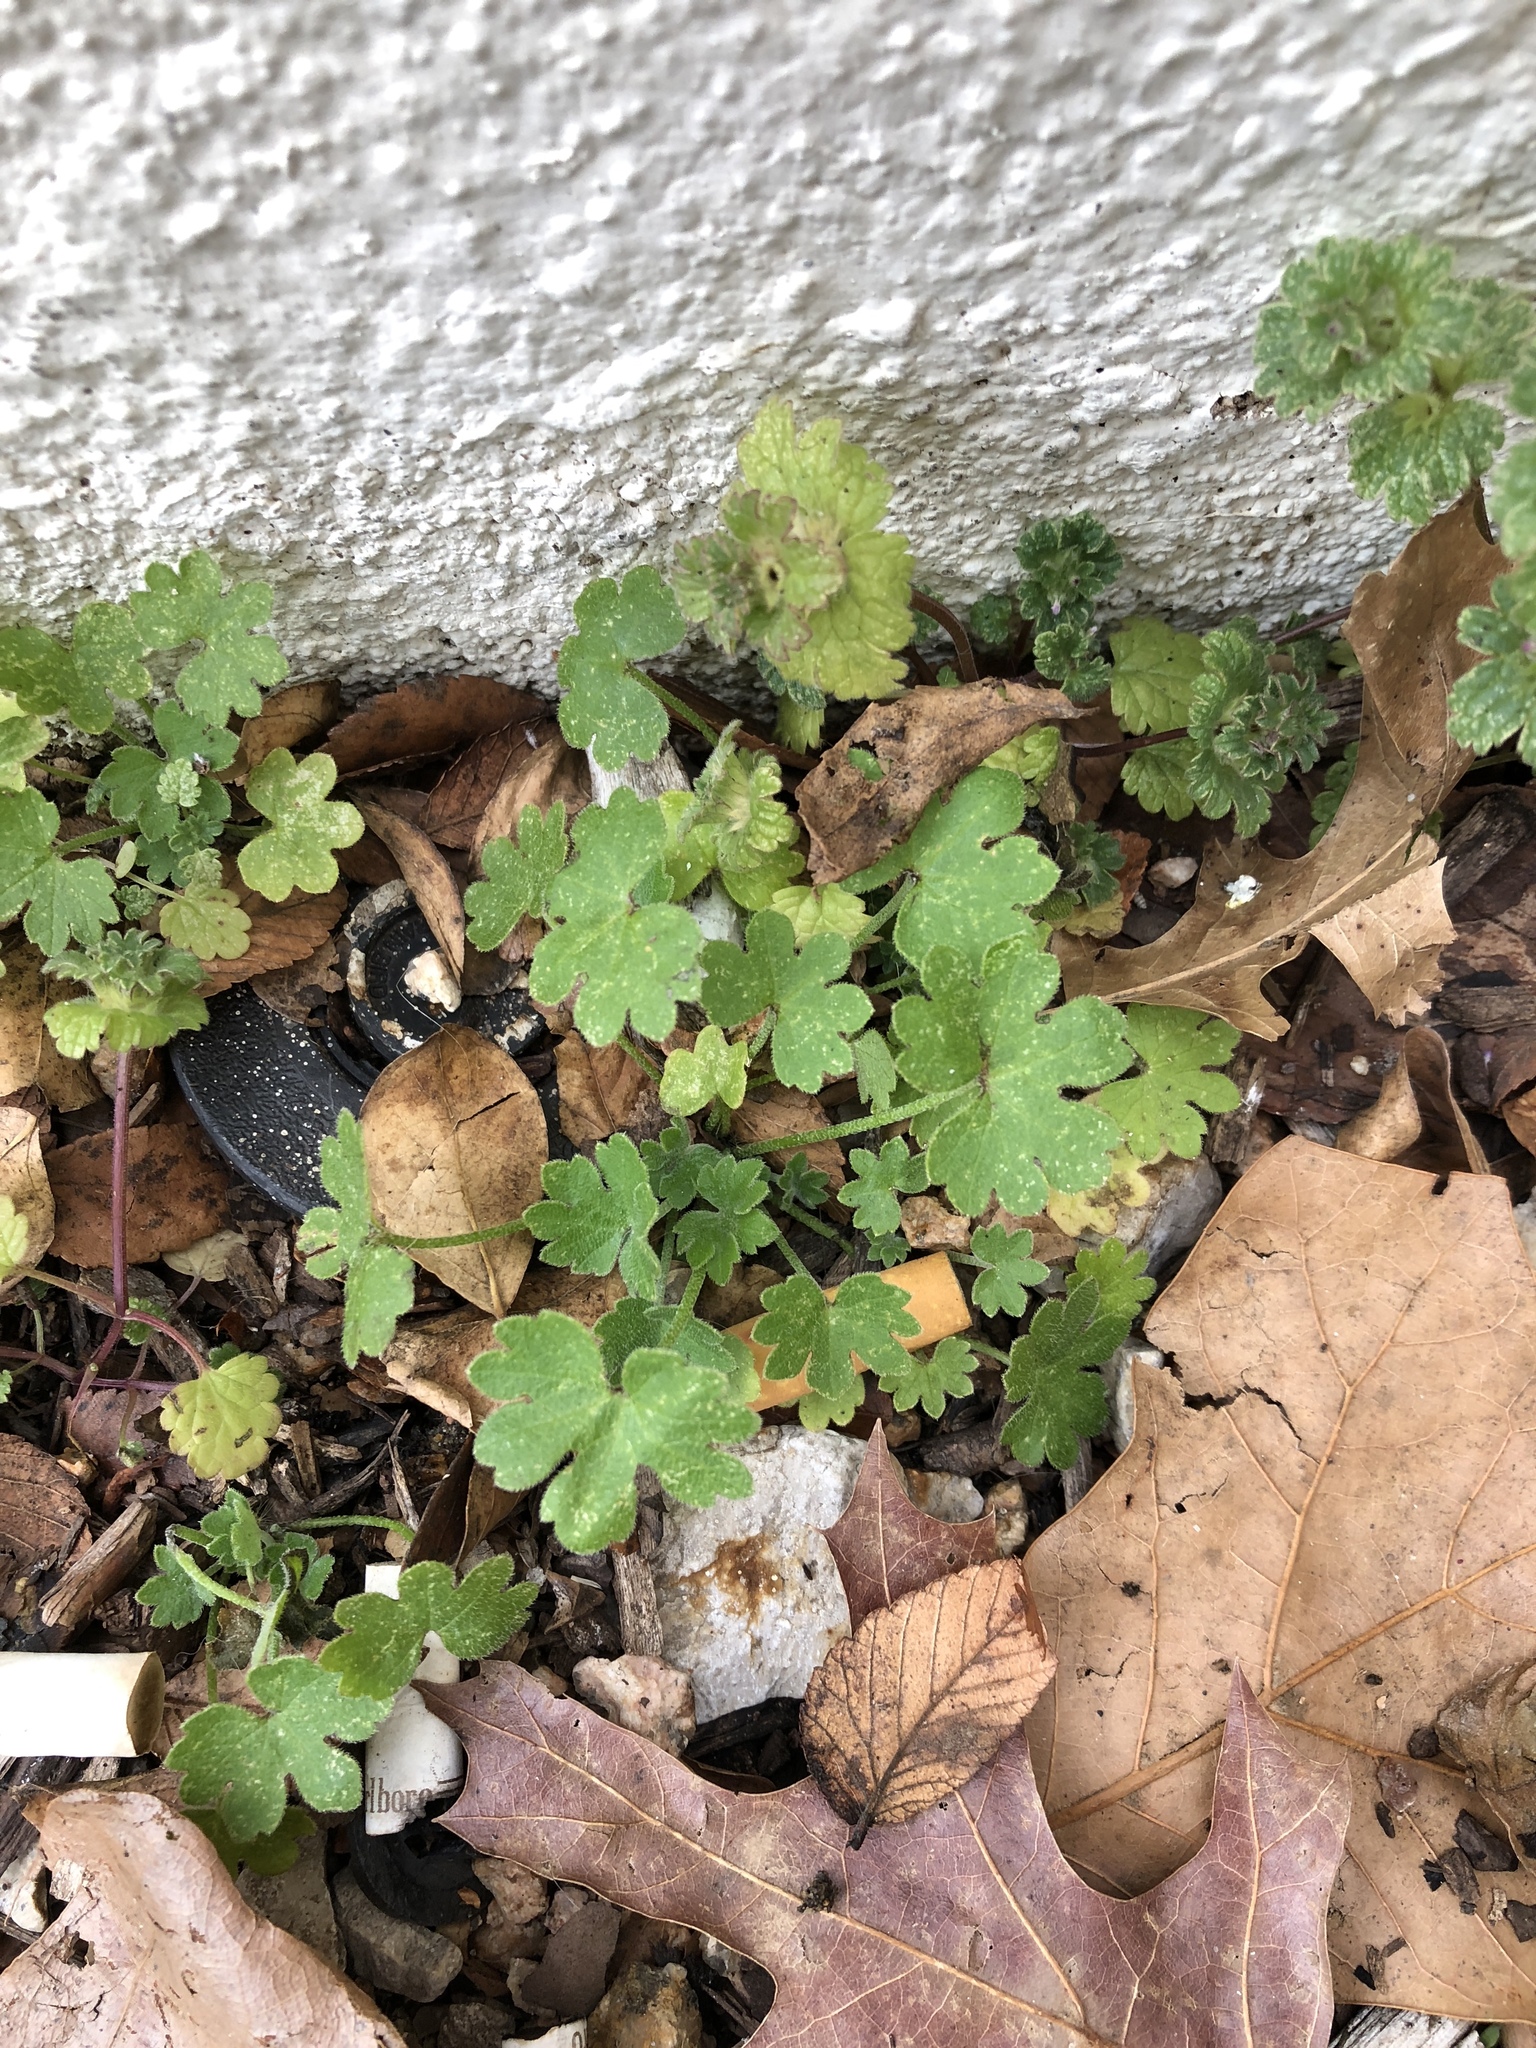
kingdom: Plantae
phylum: Tracheophyta
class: Magnoliopsida
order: Apiales
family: Apiaceae
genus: Bowlesia
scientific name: Bowlesia incana
